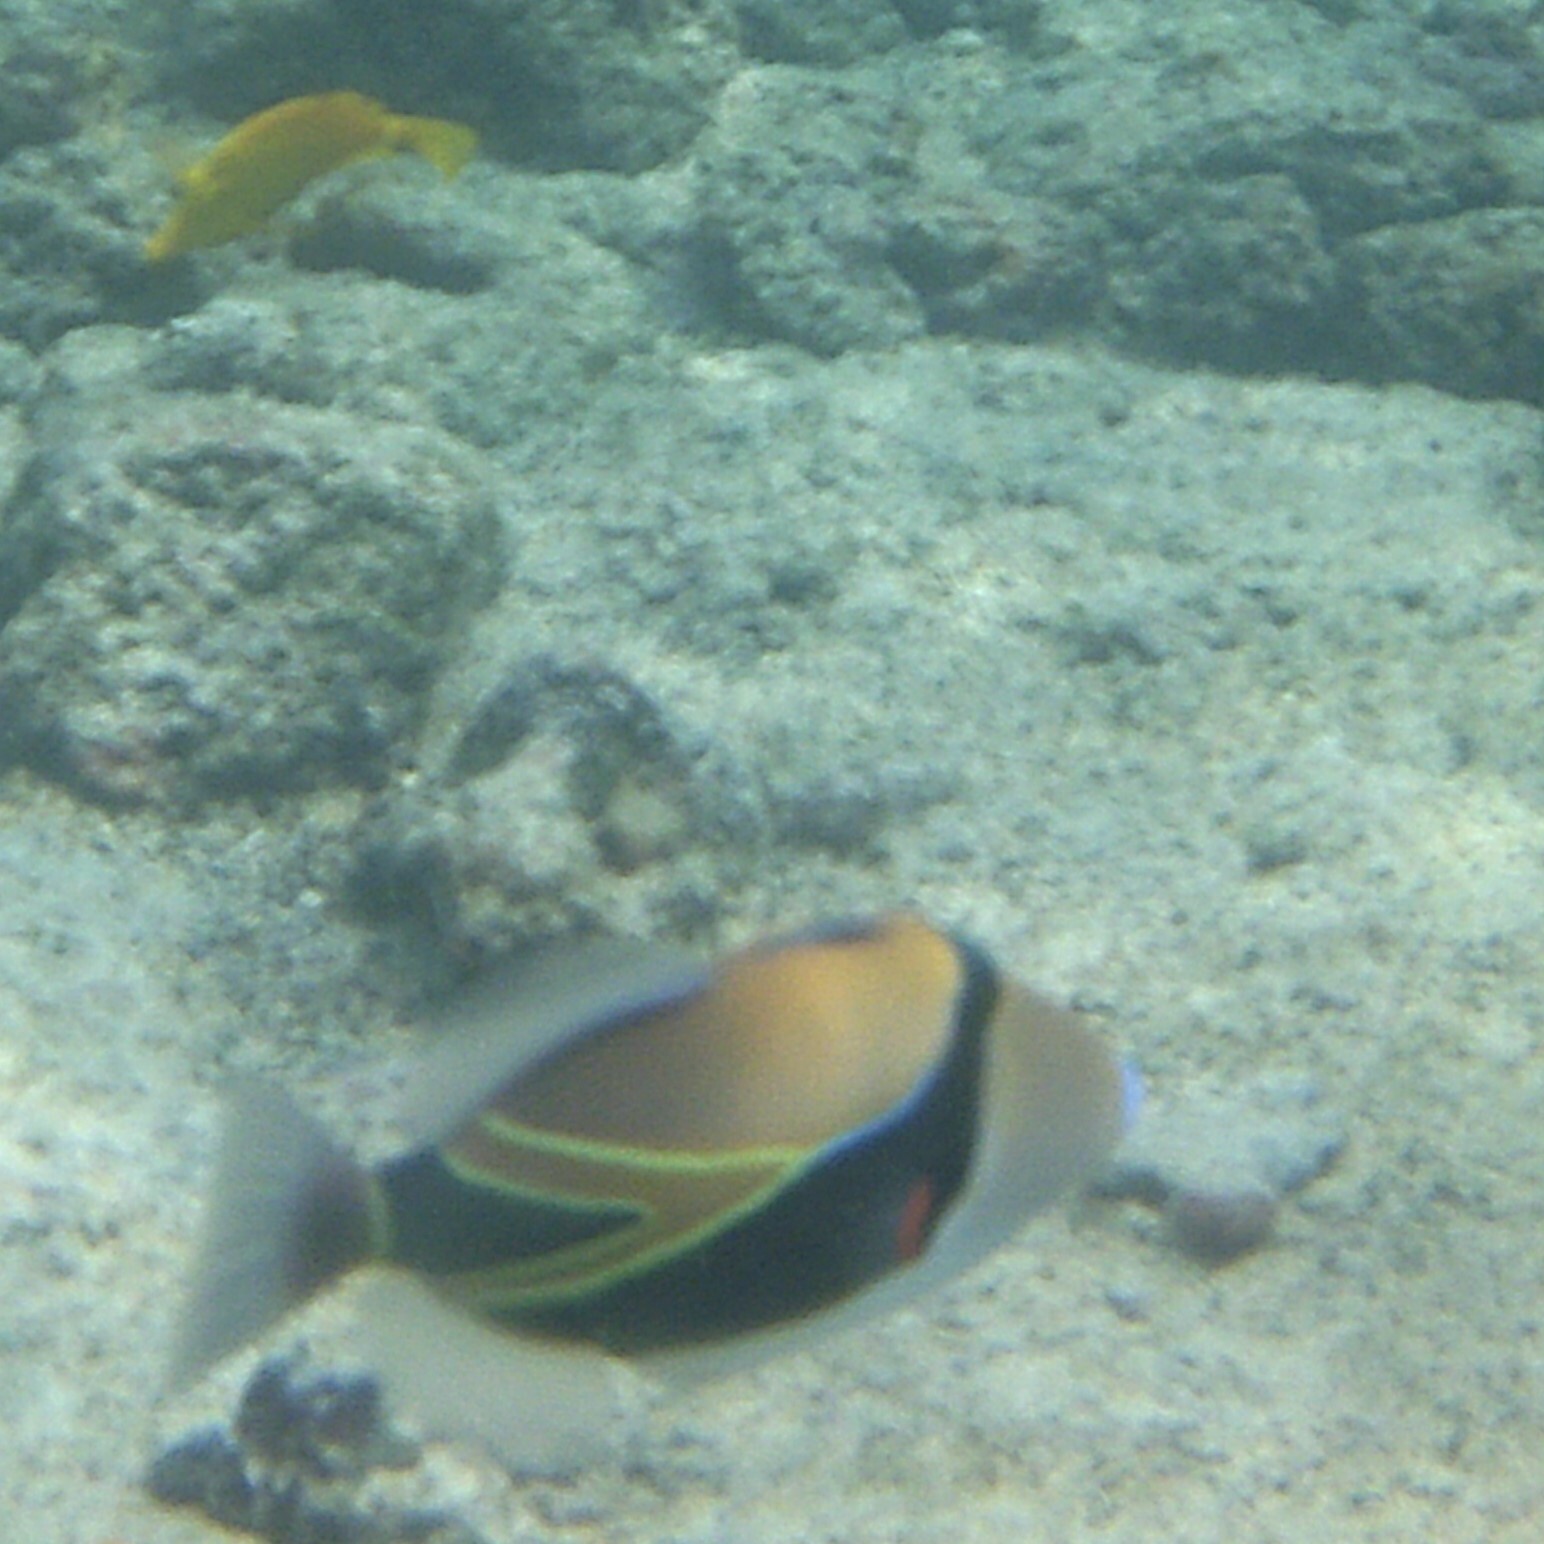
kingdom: Animalia
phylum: Chordata
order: Tetraodontiformes
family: Balistidae
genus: Rhinecanthus
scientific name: Rhinecanthus rectangulus
